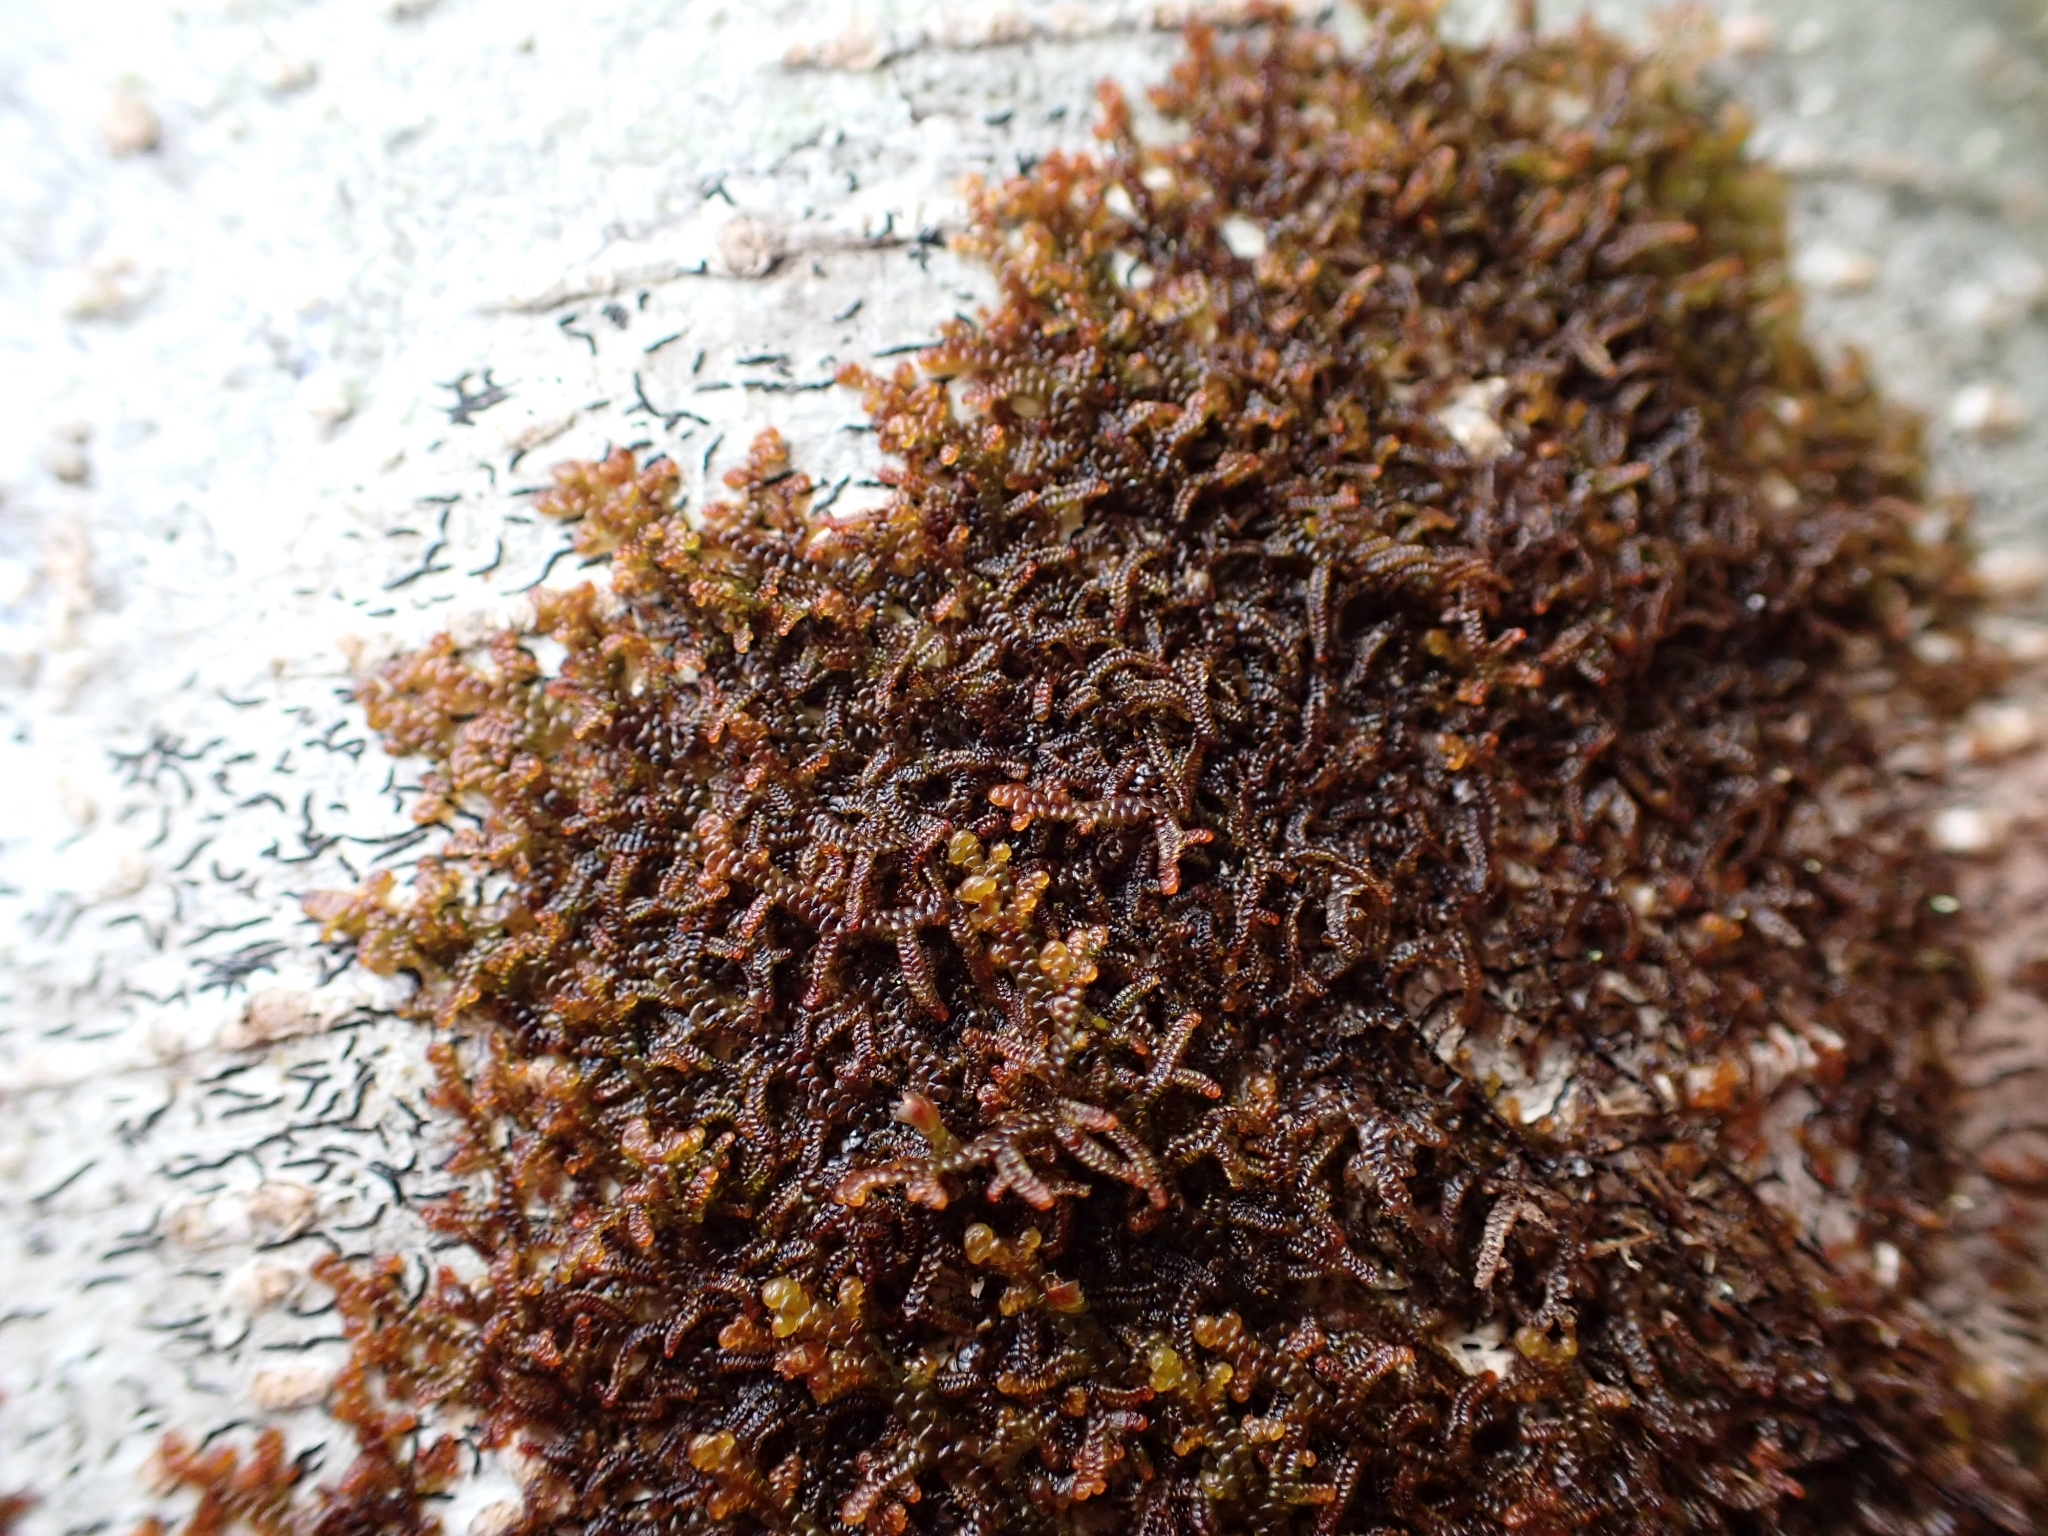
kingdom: Plantae
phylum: Marchantiophyta
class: Jungermanniopsida
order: Porellales
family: Frullaniaceae
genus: Frullania
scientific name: Frullania nisquallensis
